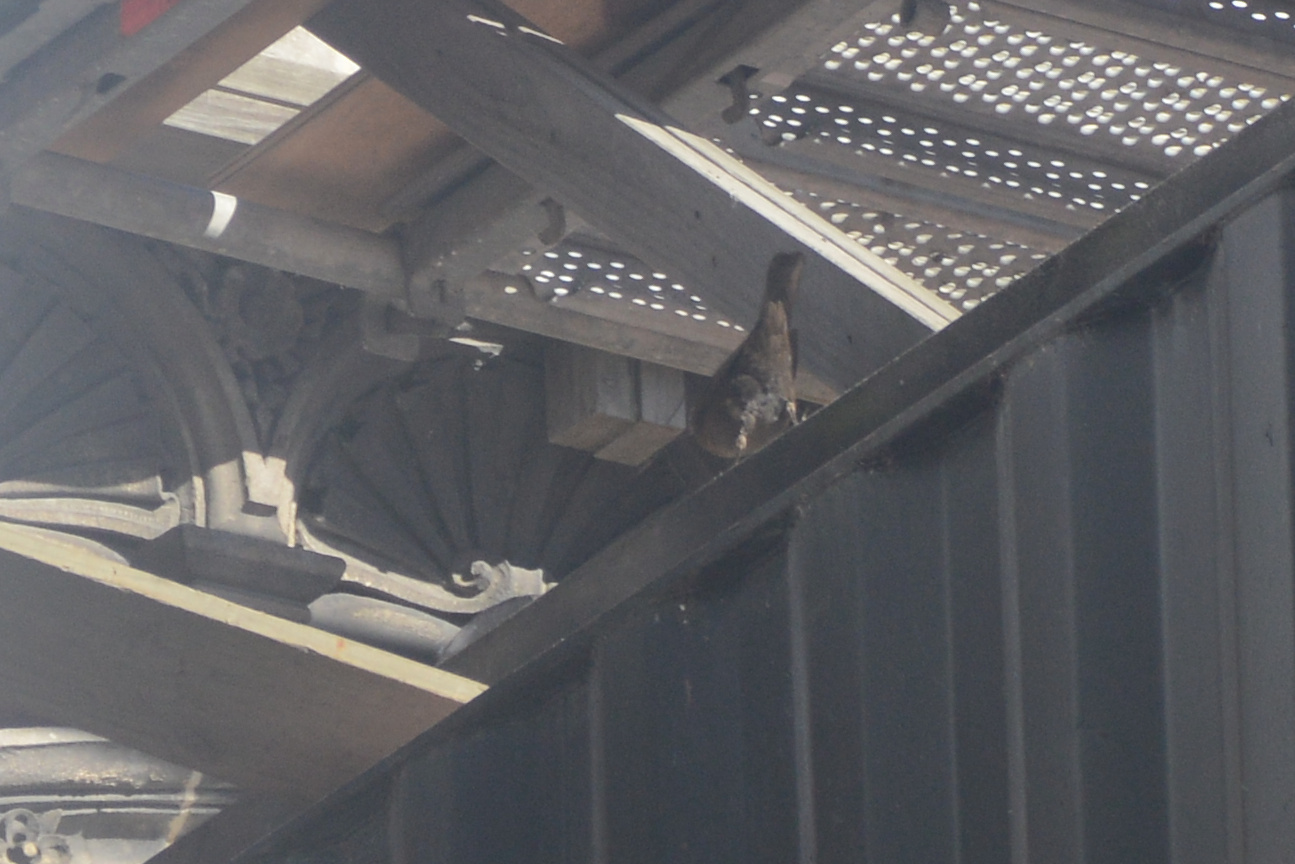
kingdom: Animalia
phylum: Chordata
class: Aves
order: Passeriformes
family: Turdidae
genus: Turdus
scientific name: Turdus merula
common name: Common blackbird
